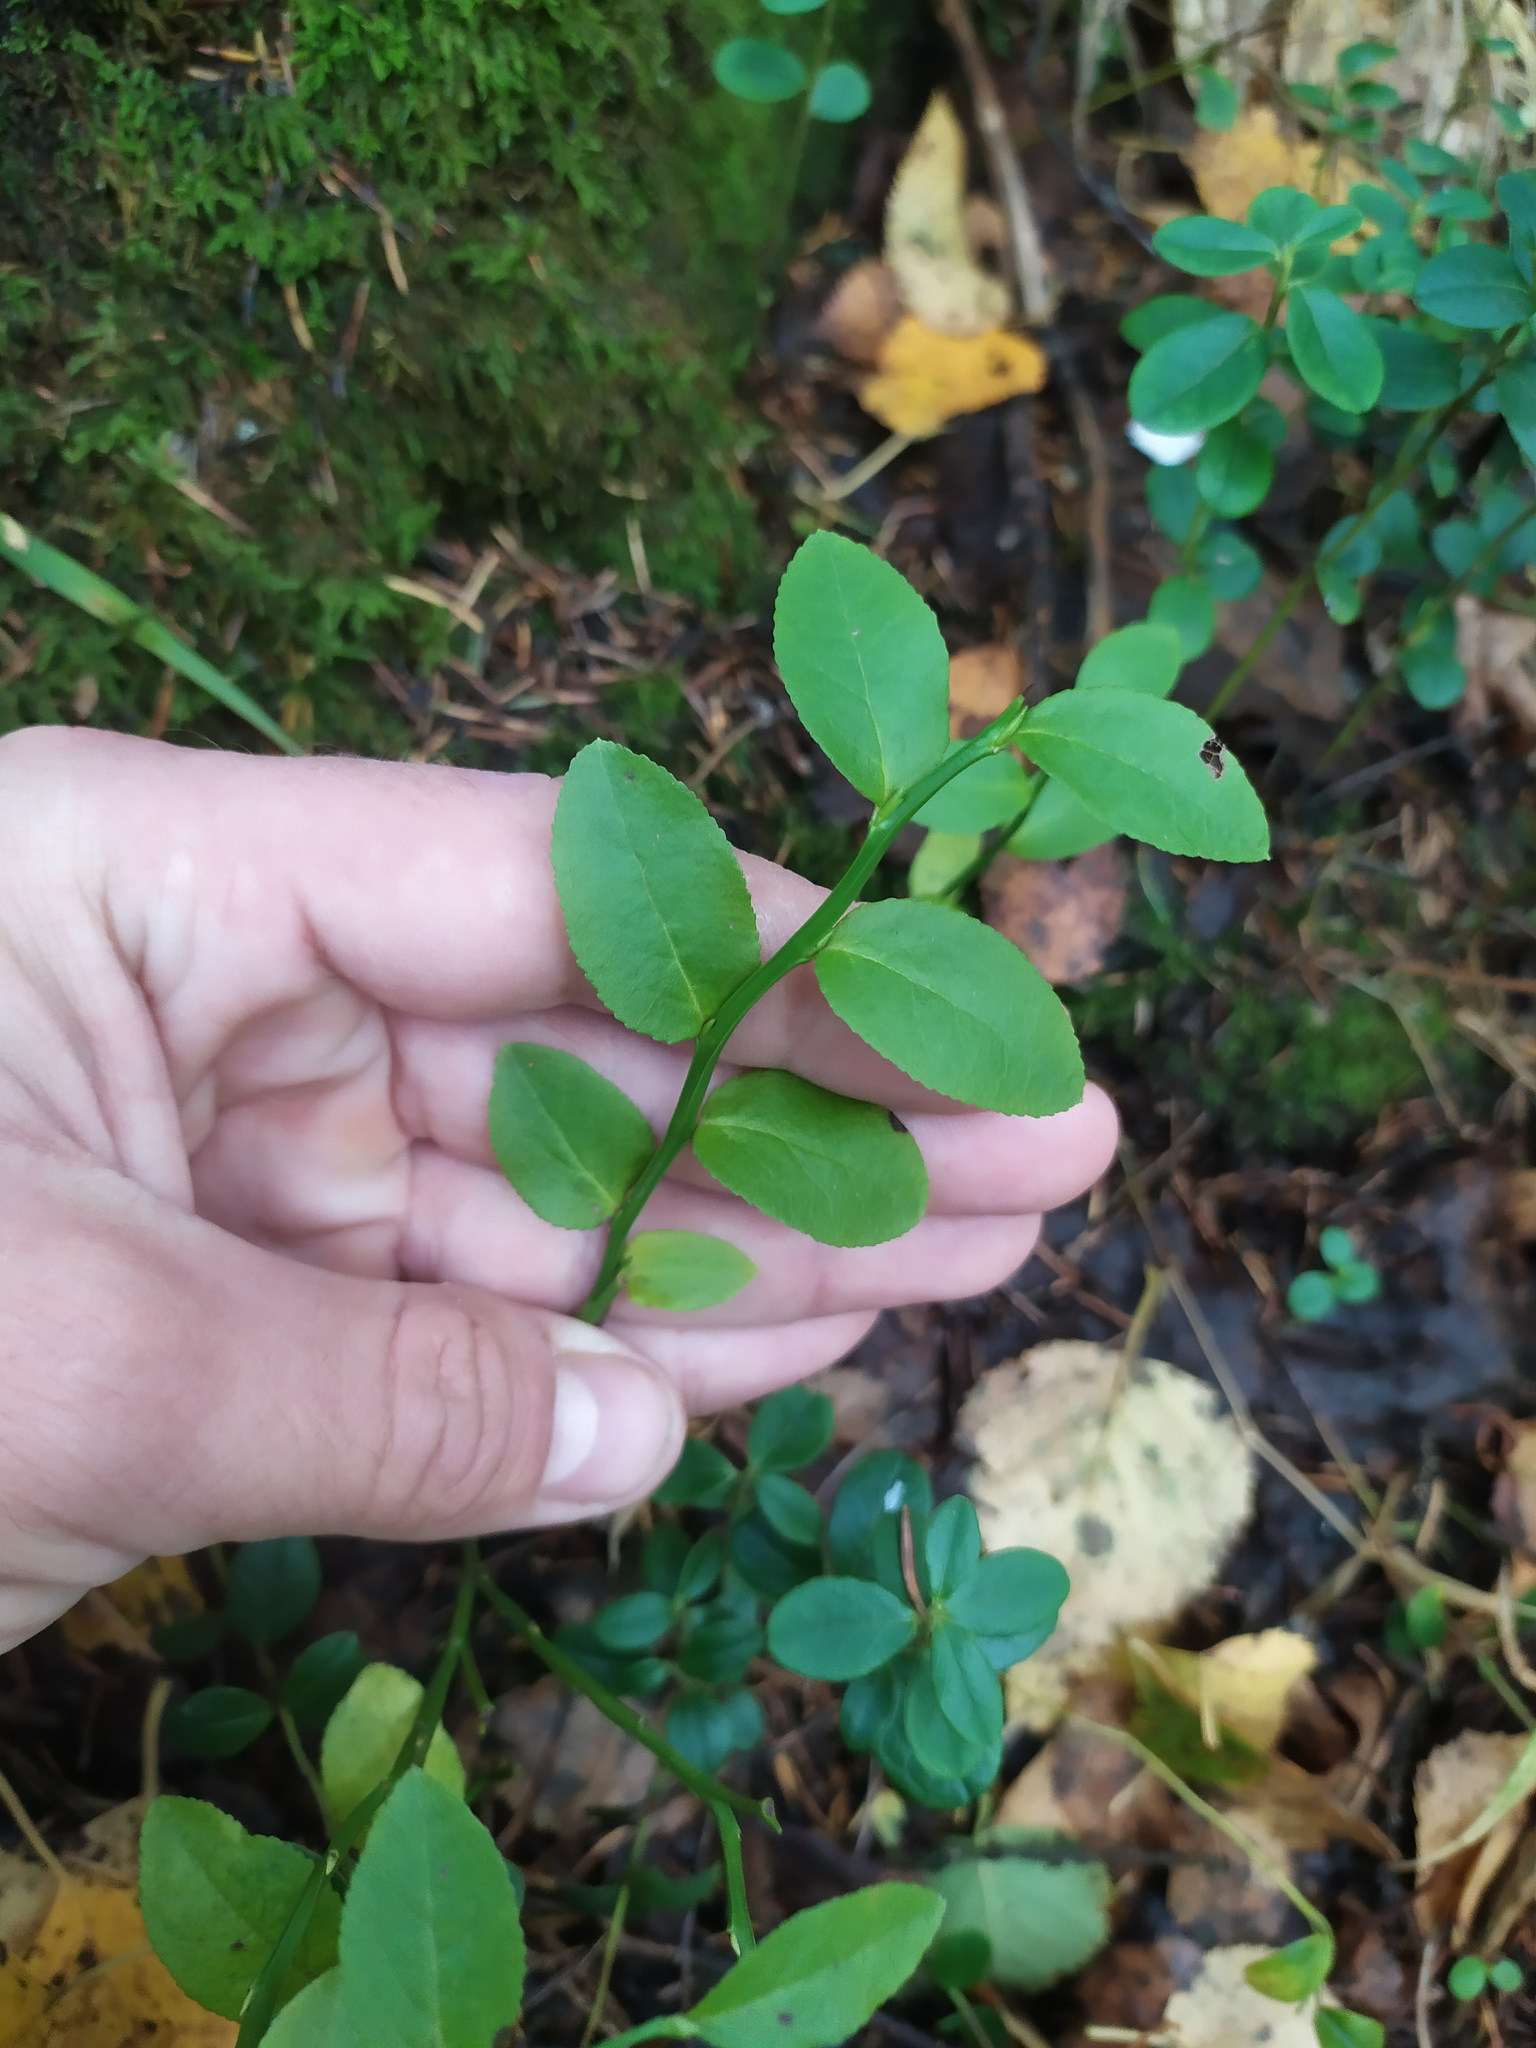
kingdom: Plantae
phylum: Tracheophyta
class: Magnoliopsida
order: Ericales
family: Ericaceae
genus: Vaccinium
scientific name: Vaccinium myrtillus
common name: Bilberry
